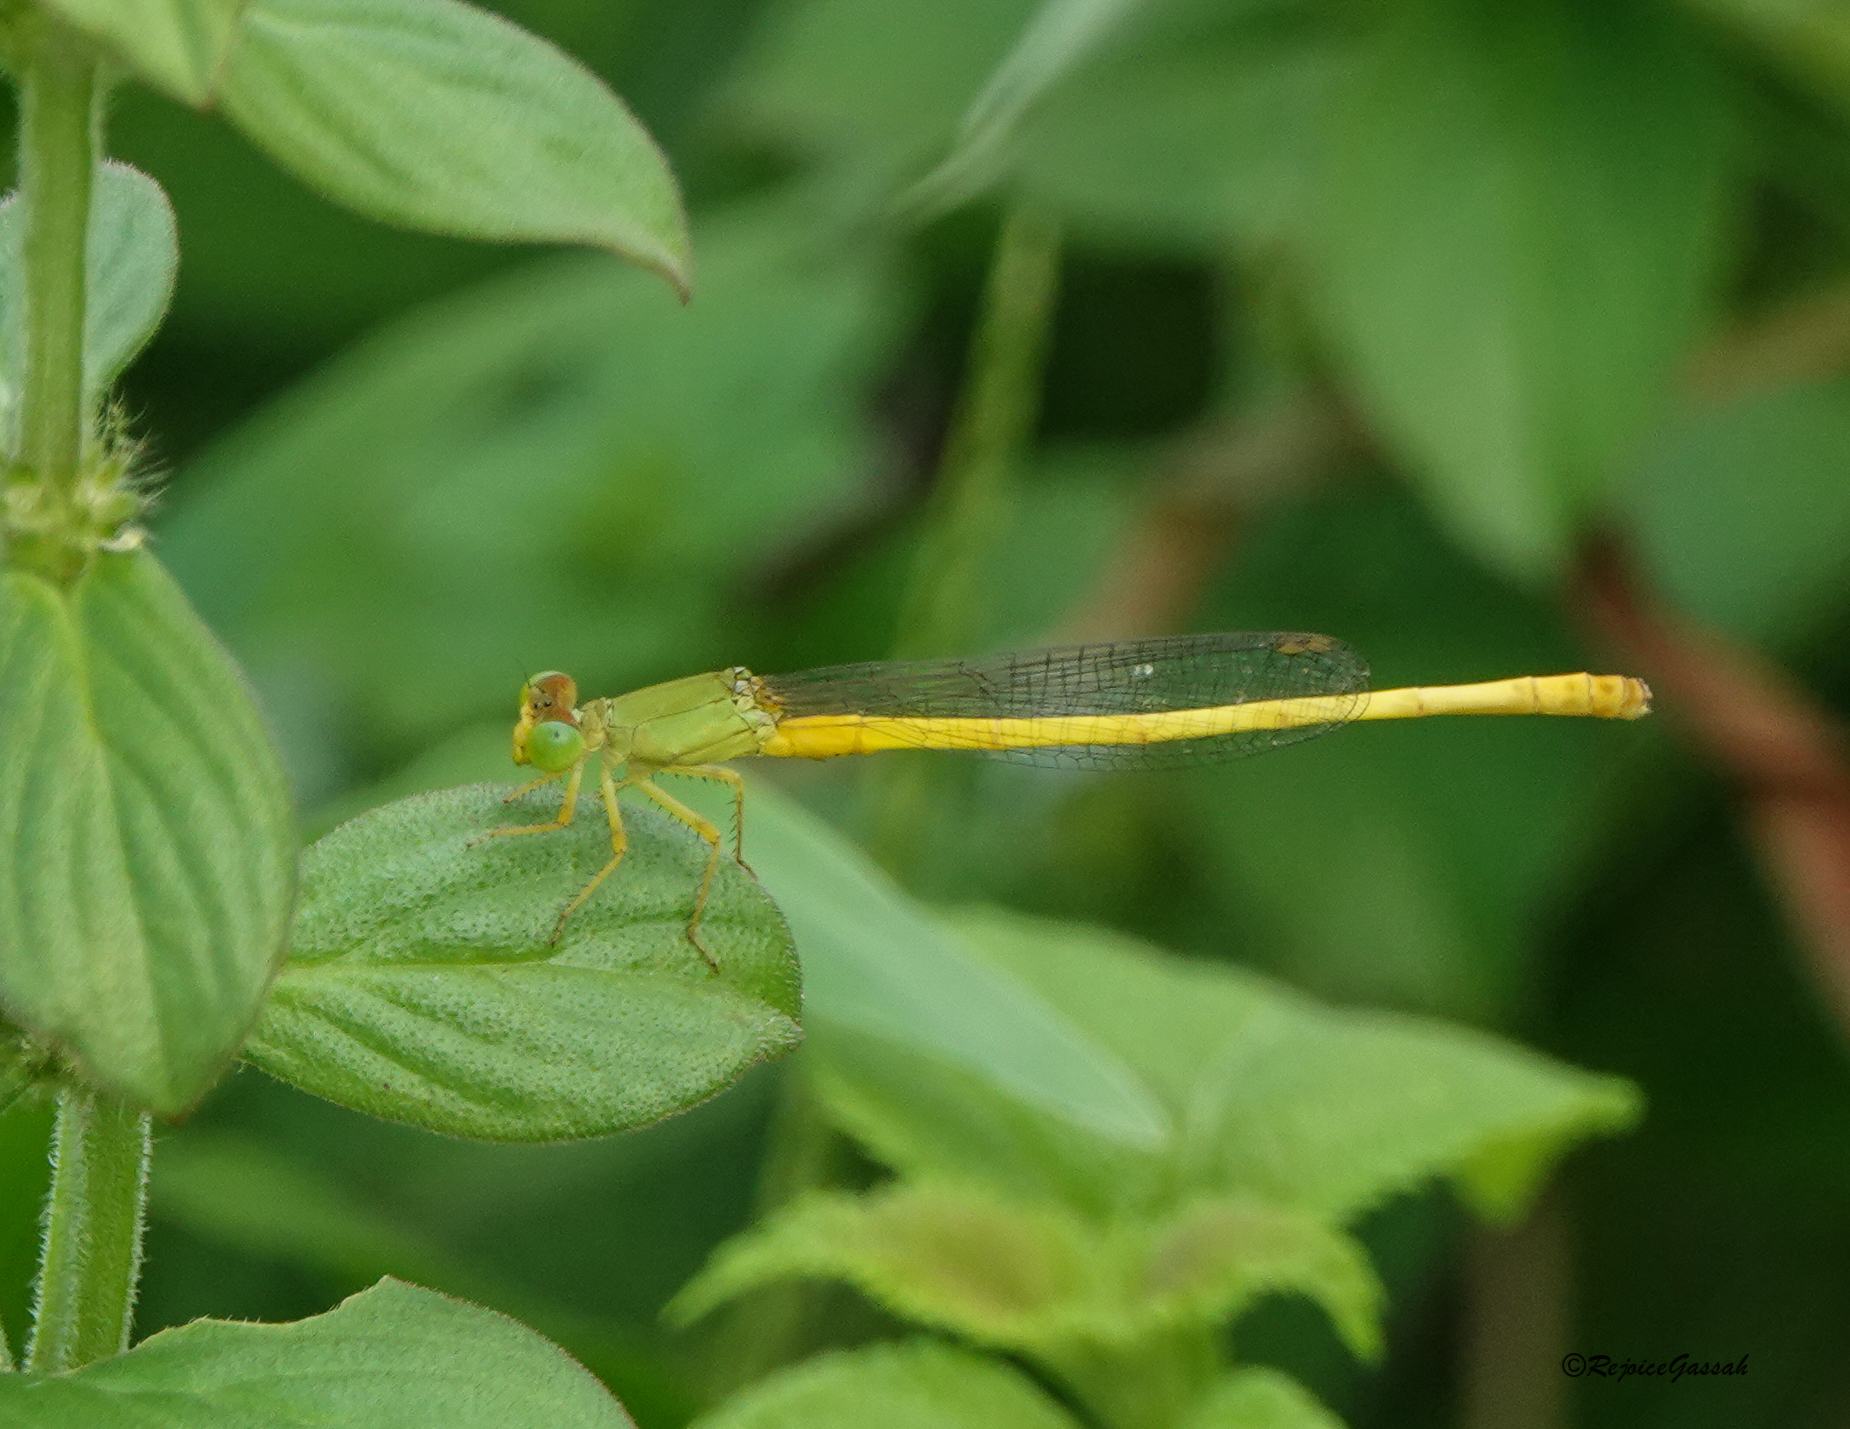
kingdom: Animalia
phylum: Arthropoda
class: Insecta
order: Odonata
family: Coenagrionidae
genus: Ceriagrion
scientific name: Ceriagrion coromandelianum
